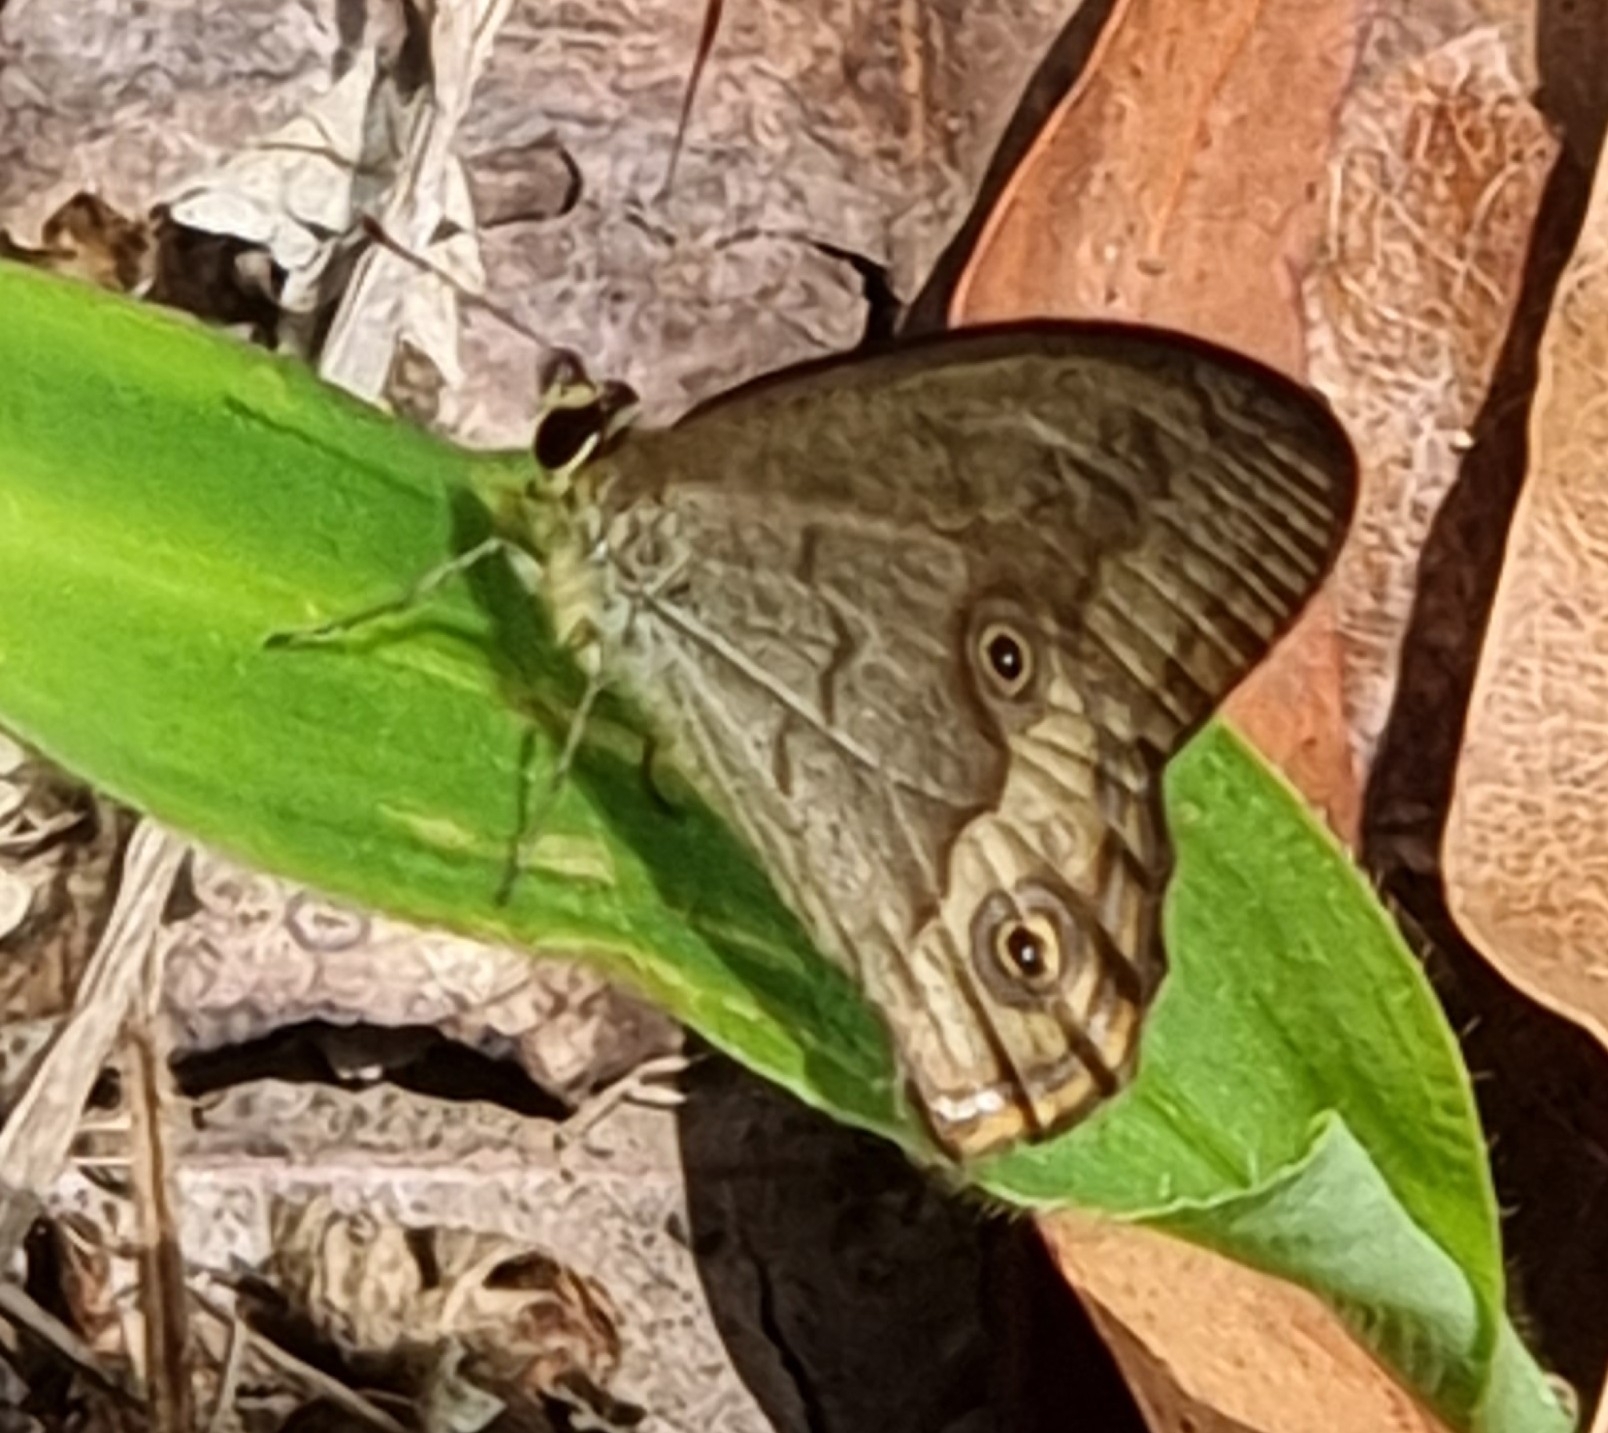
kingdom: Animalia
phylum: Arthropoda
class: Insecta
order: Lepidoptera
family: Nymphalidae
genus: Hypocysta
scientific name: Hypocysta metirius
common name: Brown ringlet
